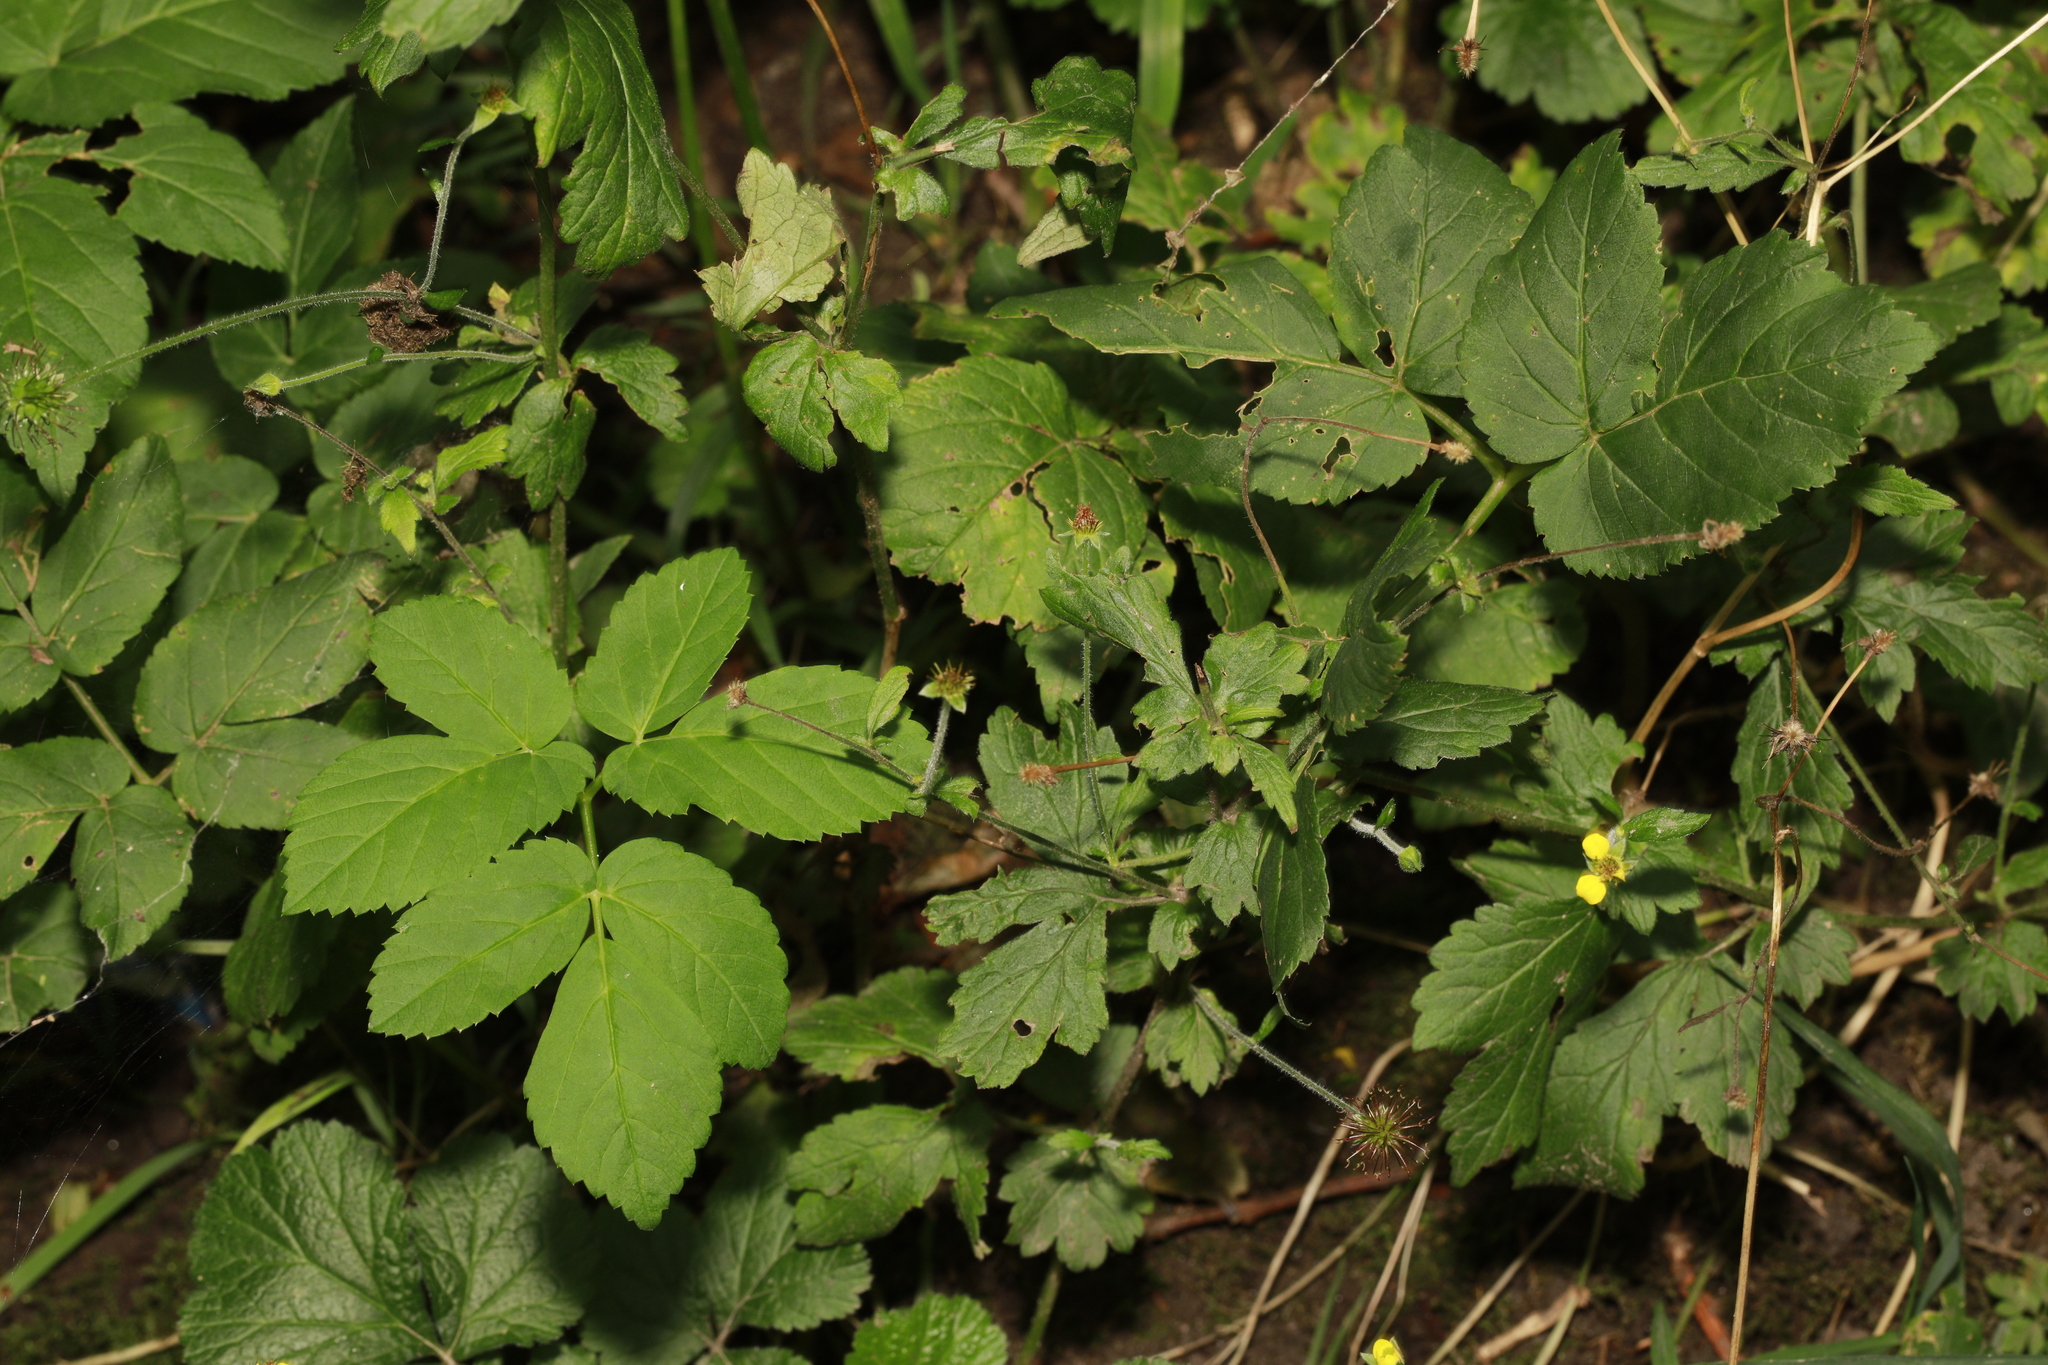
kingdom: Plantae
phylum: Tracheophyta
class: Magnoliopsida
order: Rosales
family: Rosaceae
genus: Geum
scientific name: Geum urbanum
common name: Wood avens
